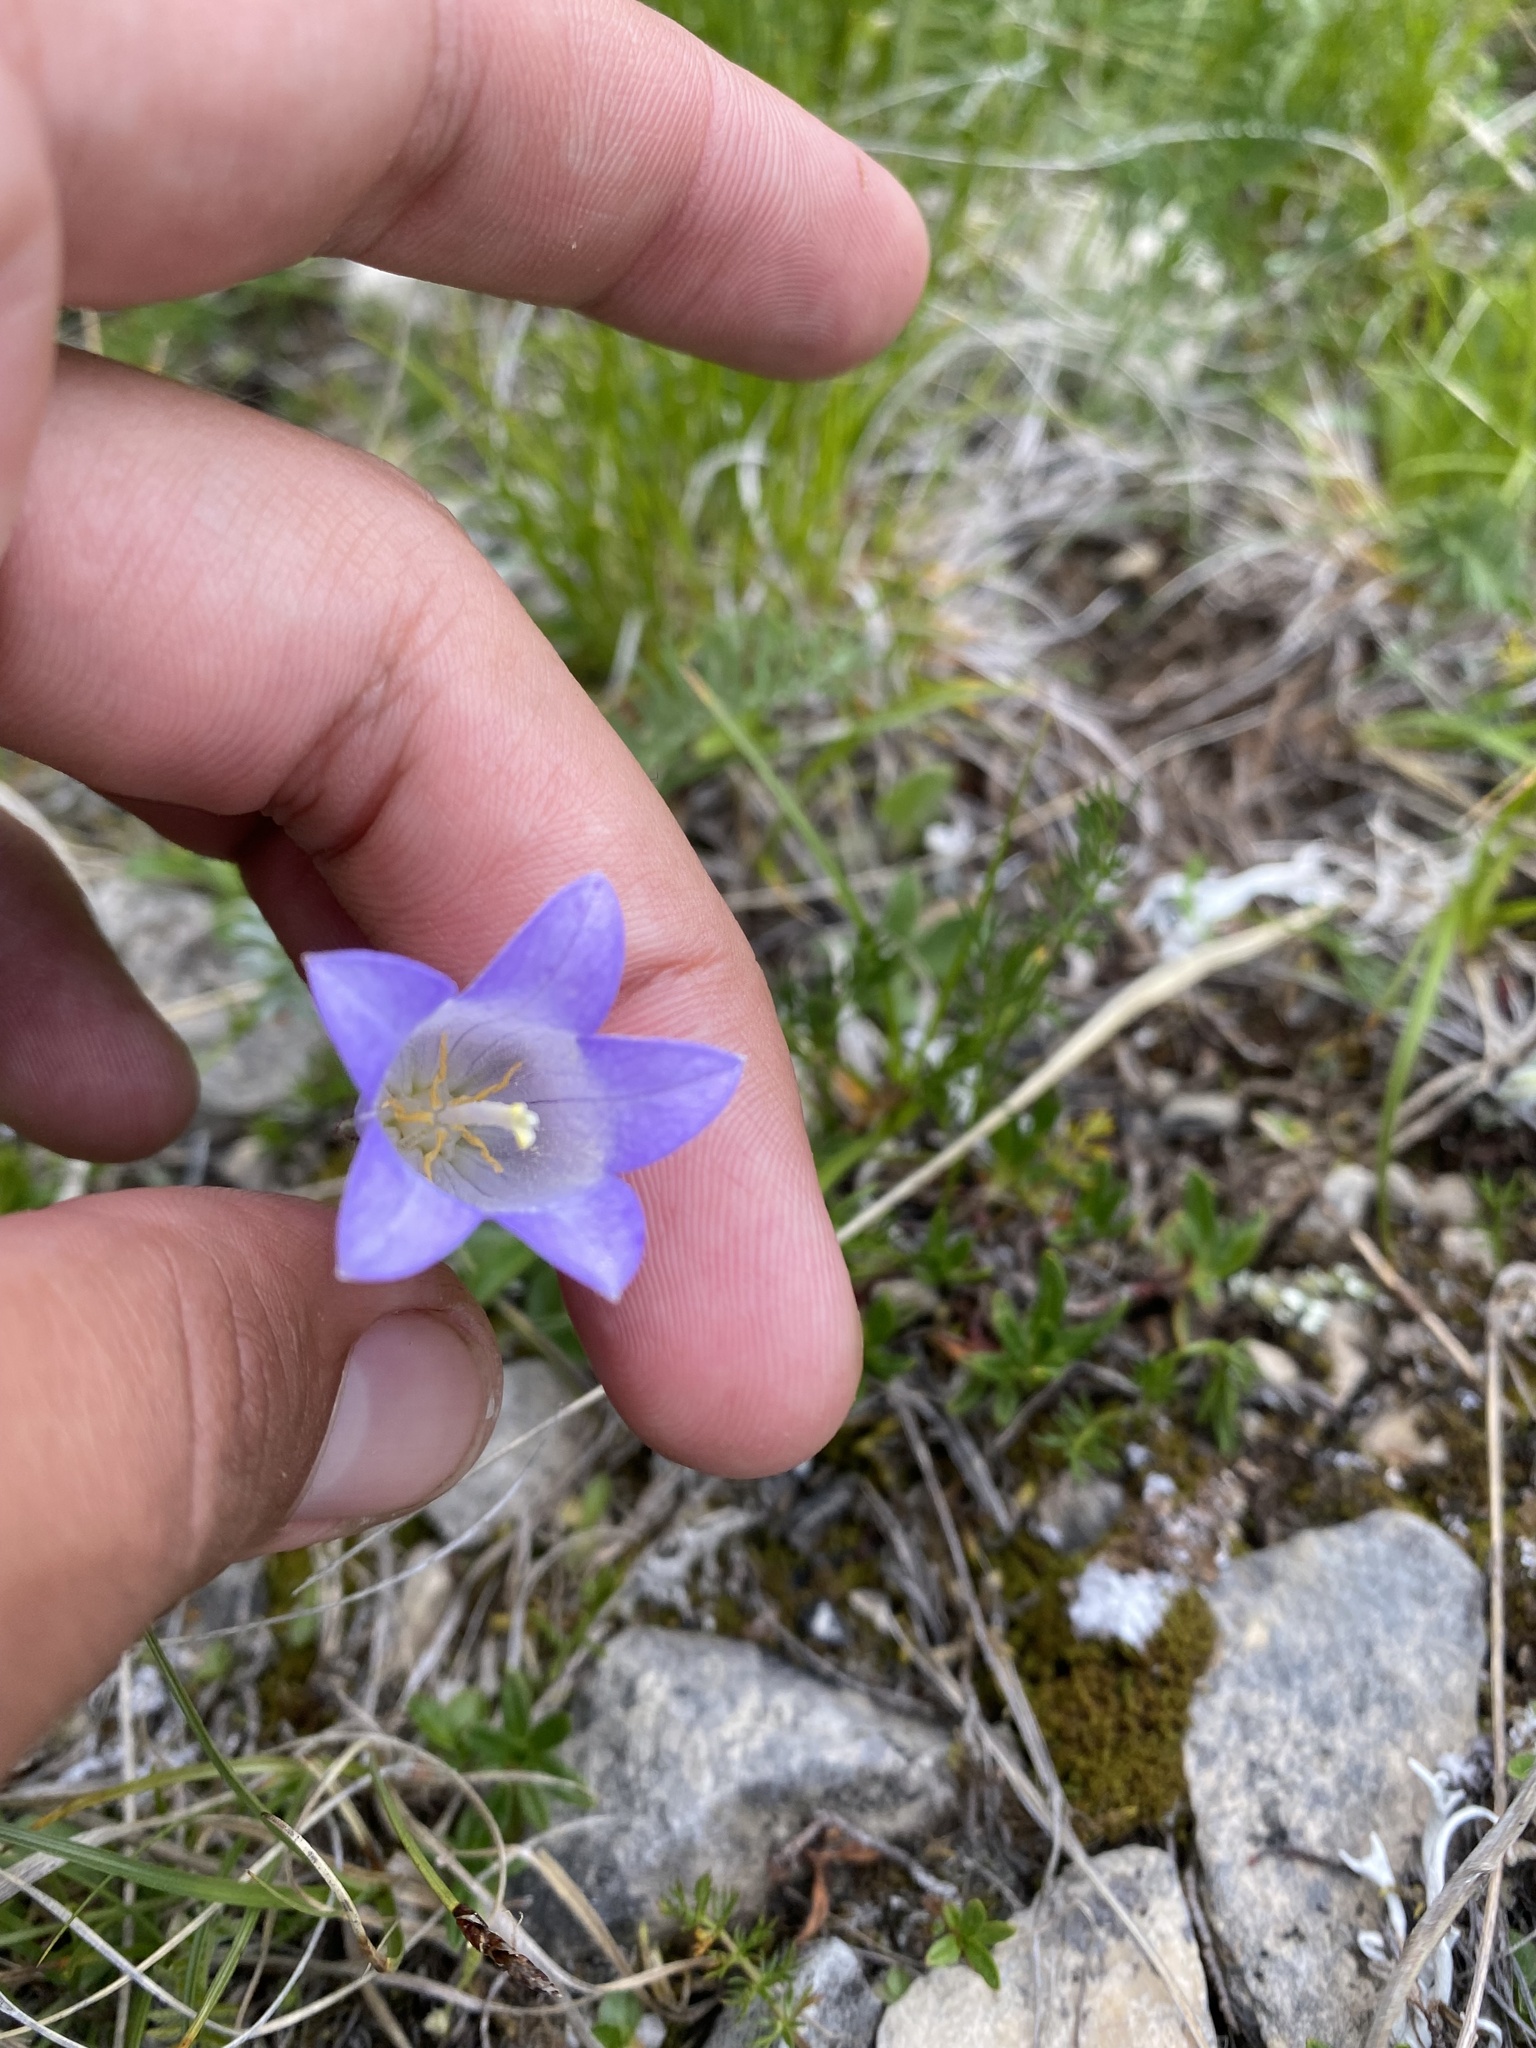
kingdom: Plantae
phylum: Tracheophyta
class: Magnoliopsida
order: Asterales
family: Campanulaceae
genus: Campanula
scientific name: Campanula ciliata
